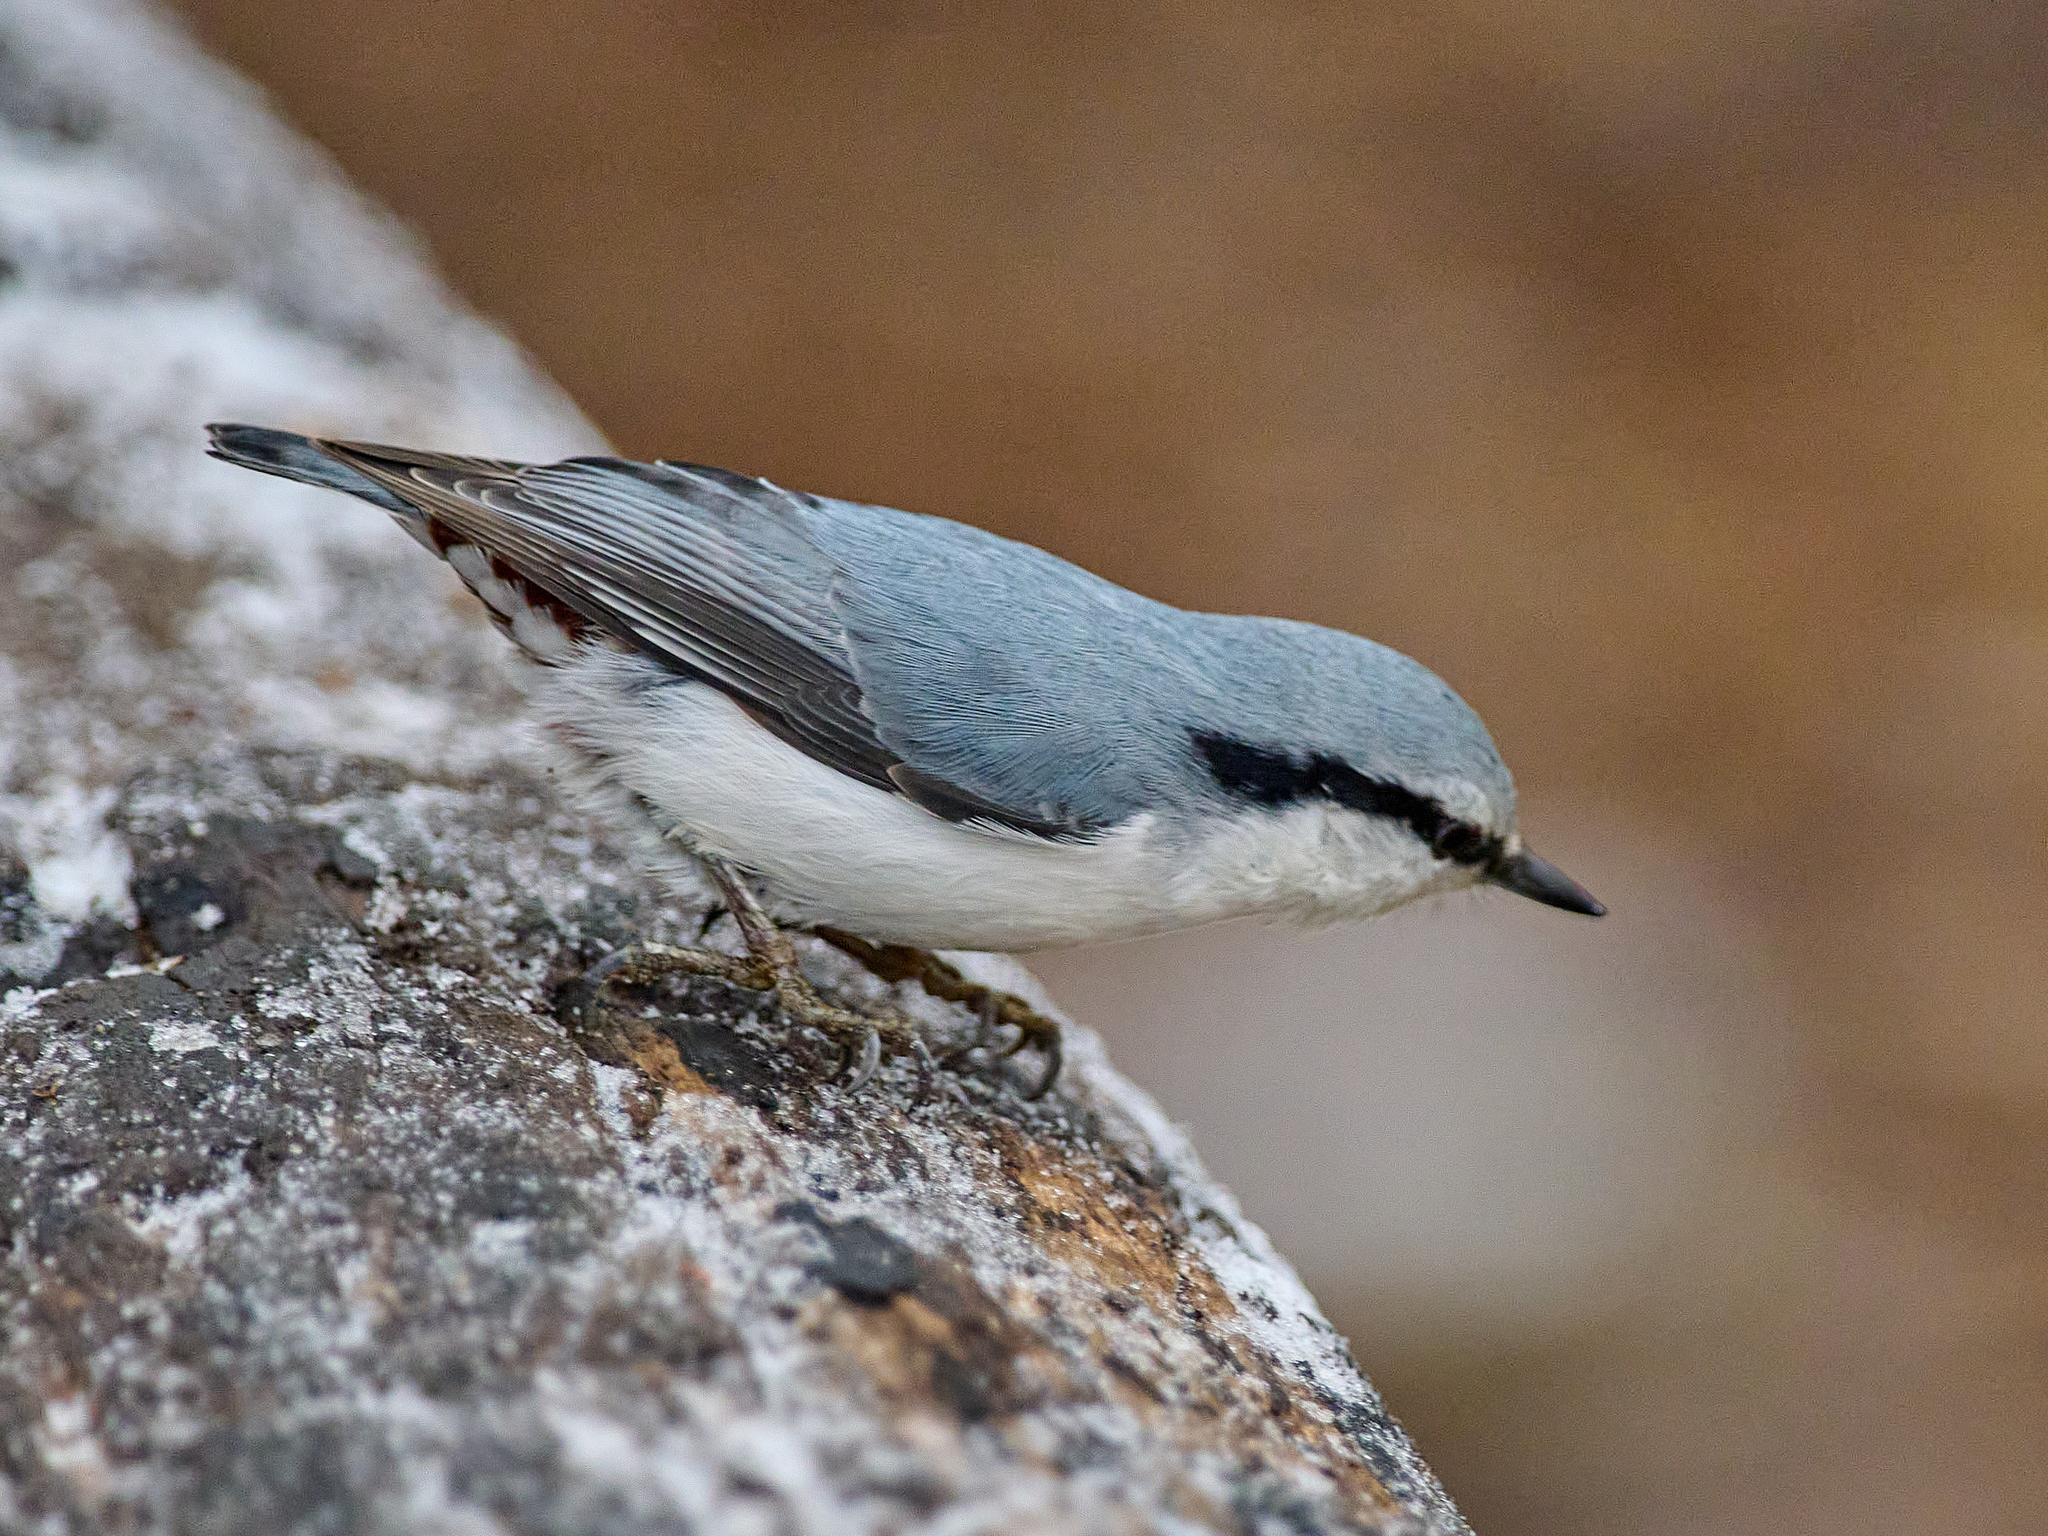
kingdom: Animalia
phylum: Chordata
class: Aves
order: Passeriformes
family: Sittidae
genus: Sitta
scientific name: Sitta europaea
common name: Eurasian nuthatch
